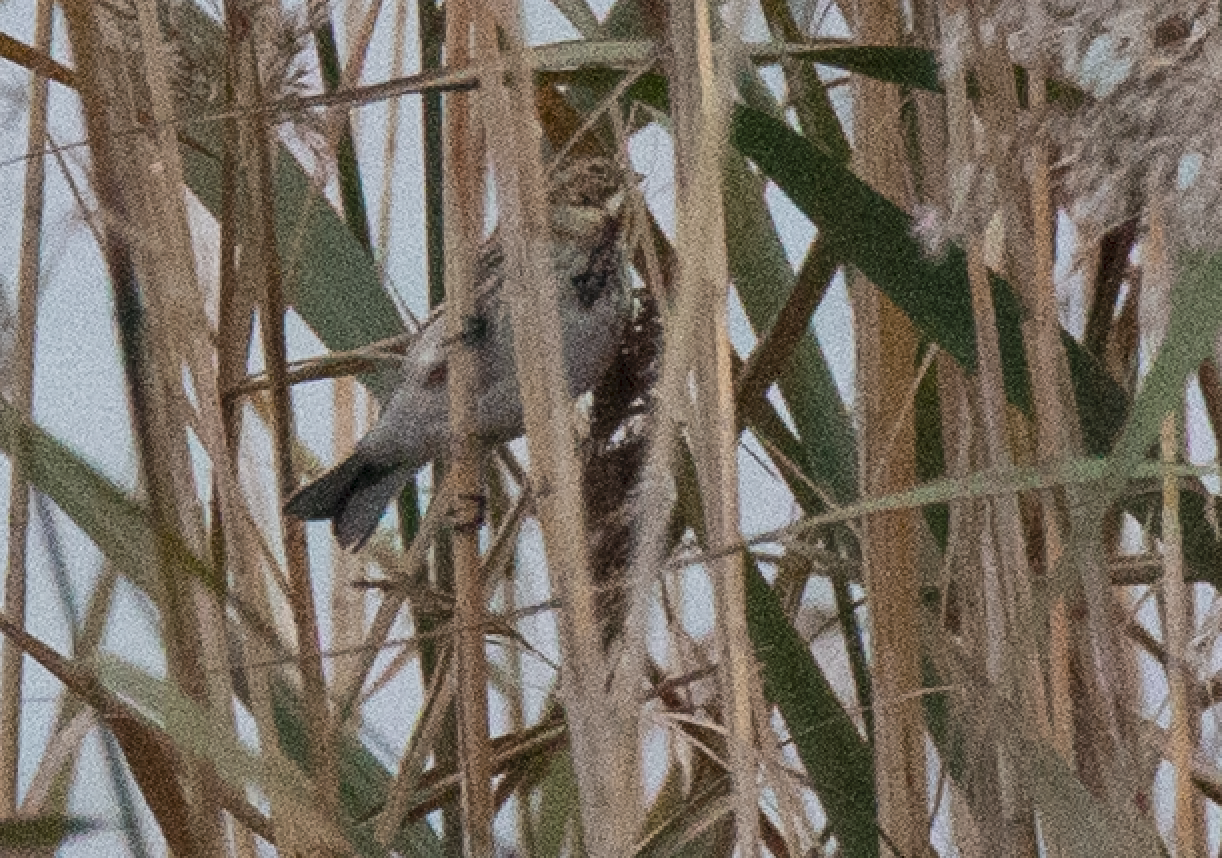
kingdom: Animalia
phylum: Chordata
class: Aves
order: Passeriformes
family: Emberizidae
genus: Emberiza
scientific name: Emberiza schoeniclus
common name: Reed bunting
